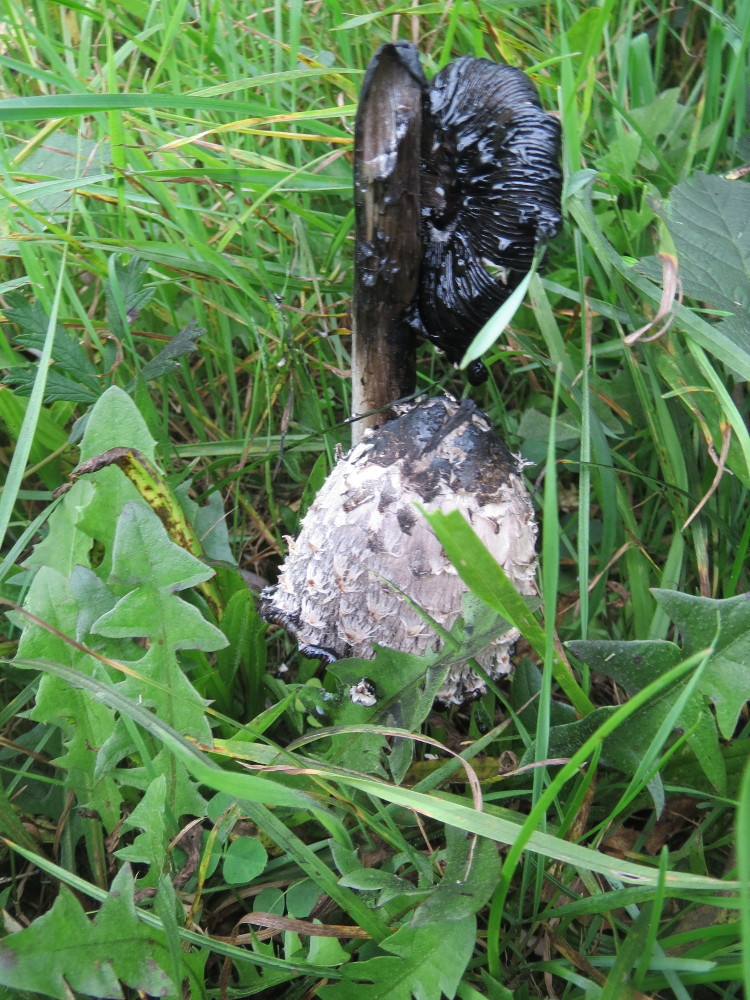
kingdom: Fungi
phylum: Basidiomycota
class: Agaricomycetes
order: Agaricales
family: Agaricaceae
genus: Coprinus
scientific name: Coprinus comatus
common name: Lawyer's wig
